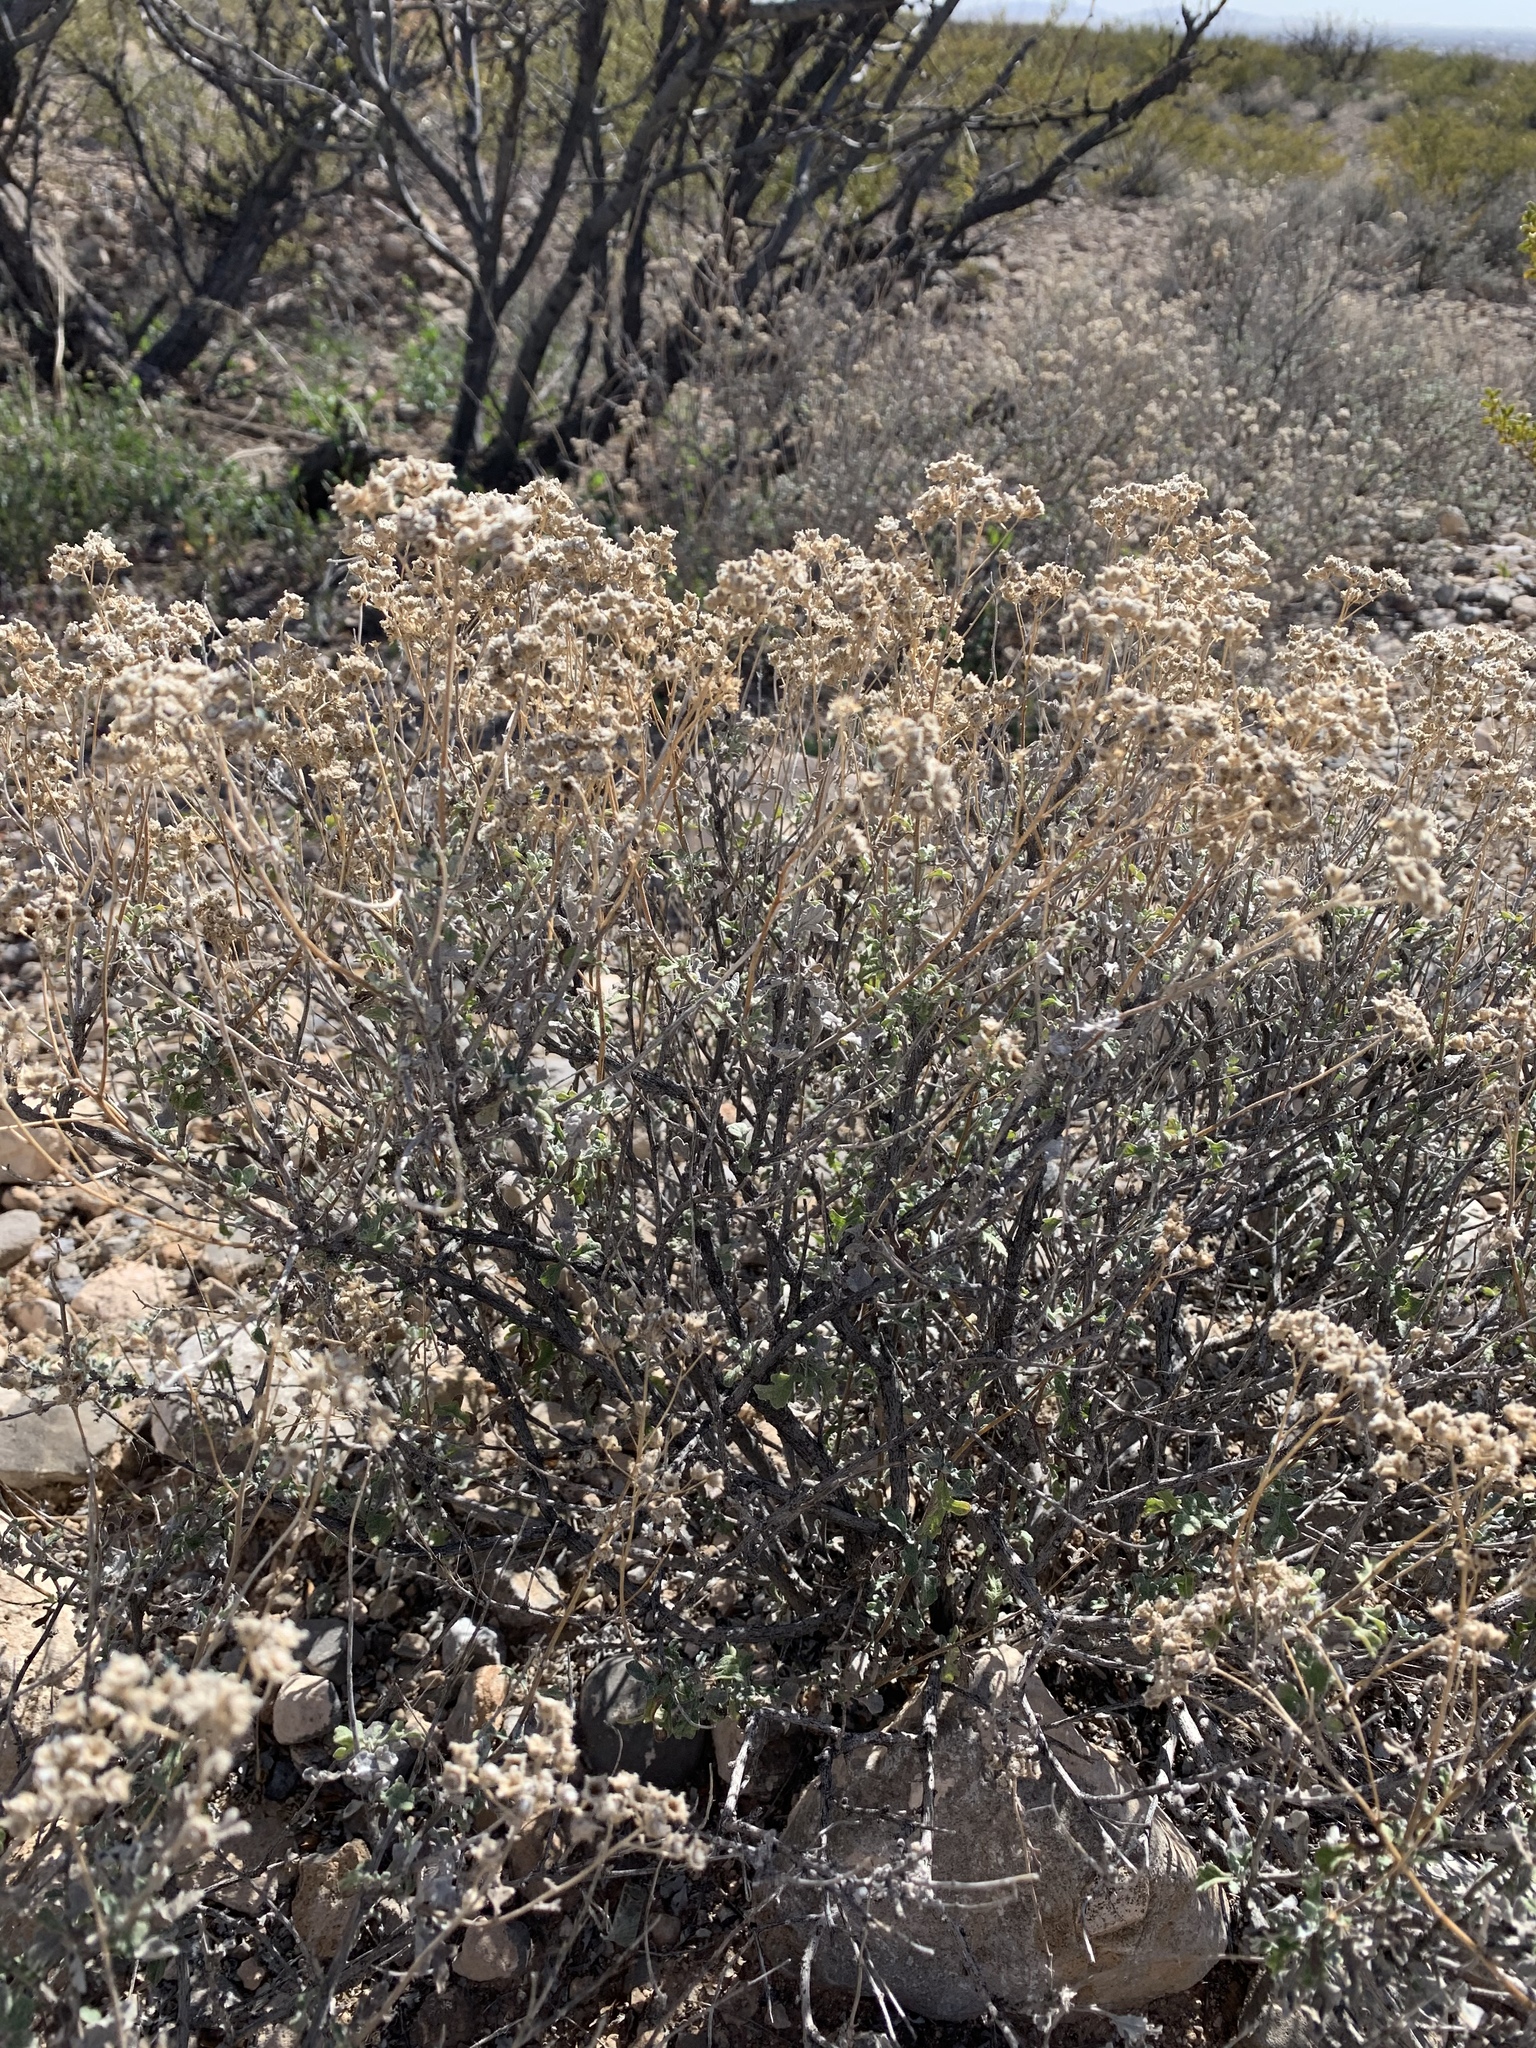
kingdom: Plantae
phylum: Tracheophyta
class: Magnoliopsida
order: Asterales
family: Asteraceae
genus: Parthenium
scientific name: Parthenium incanum
